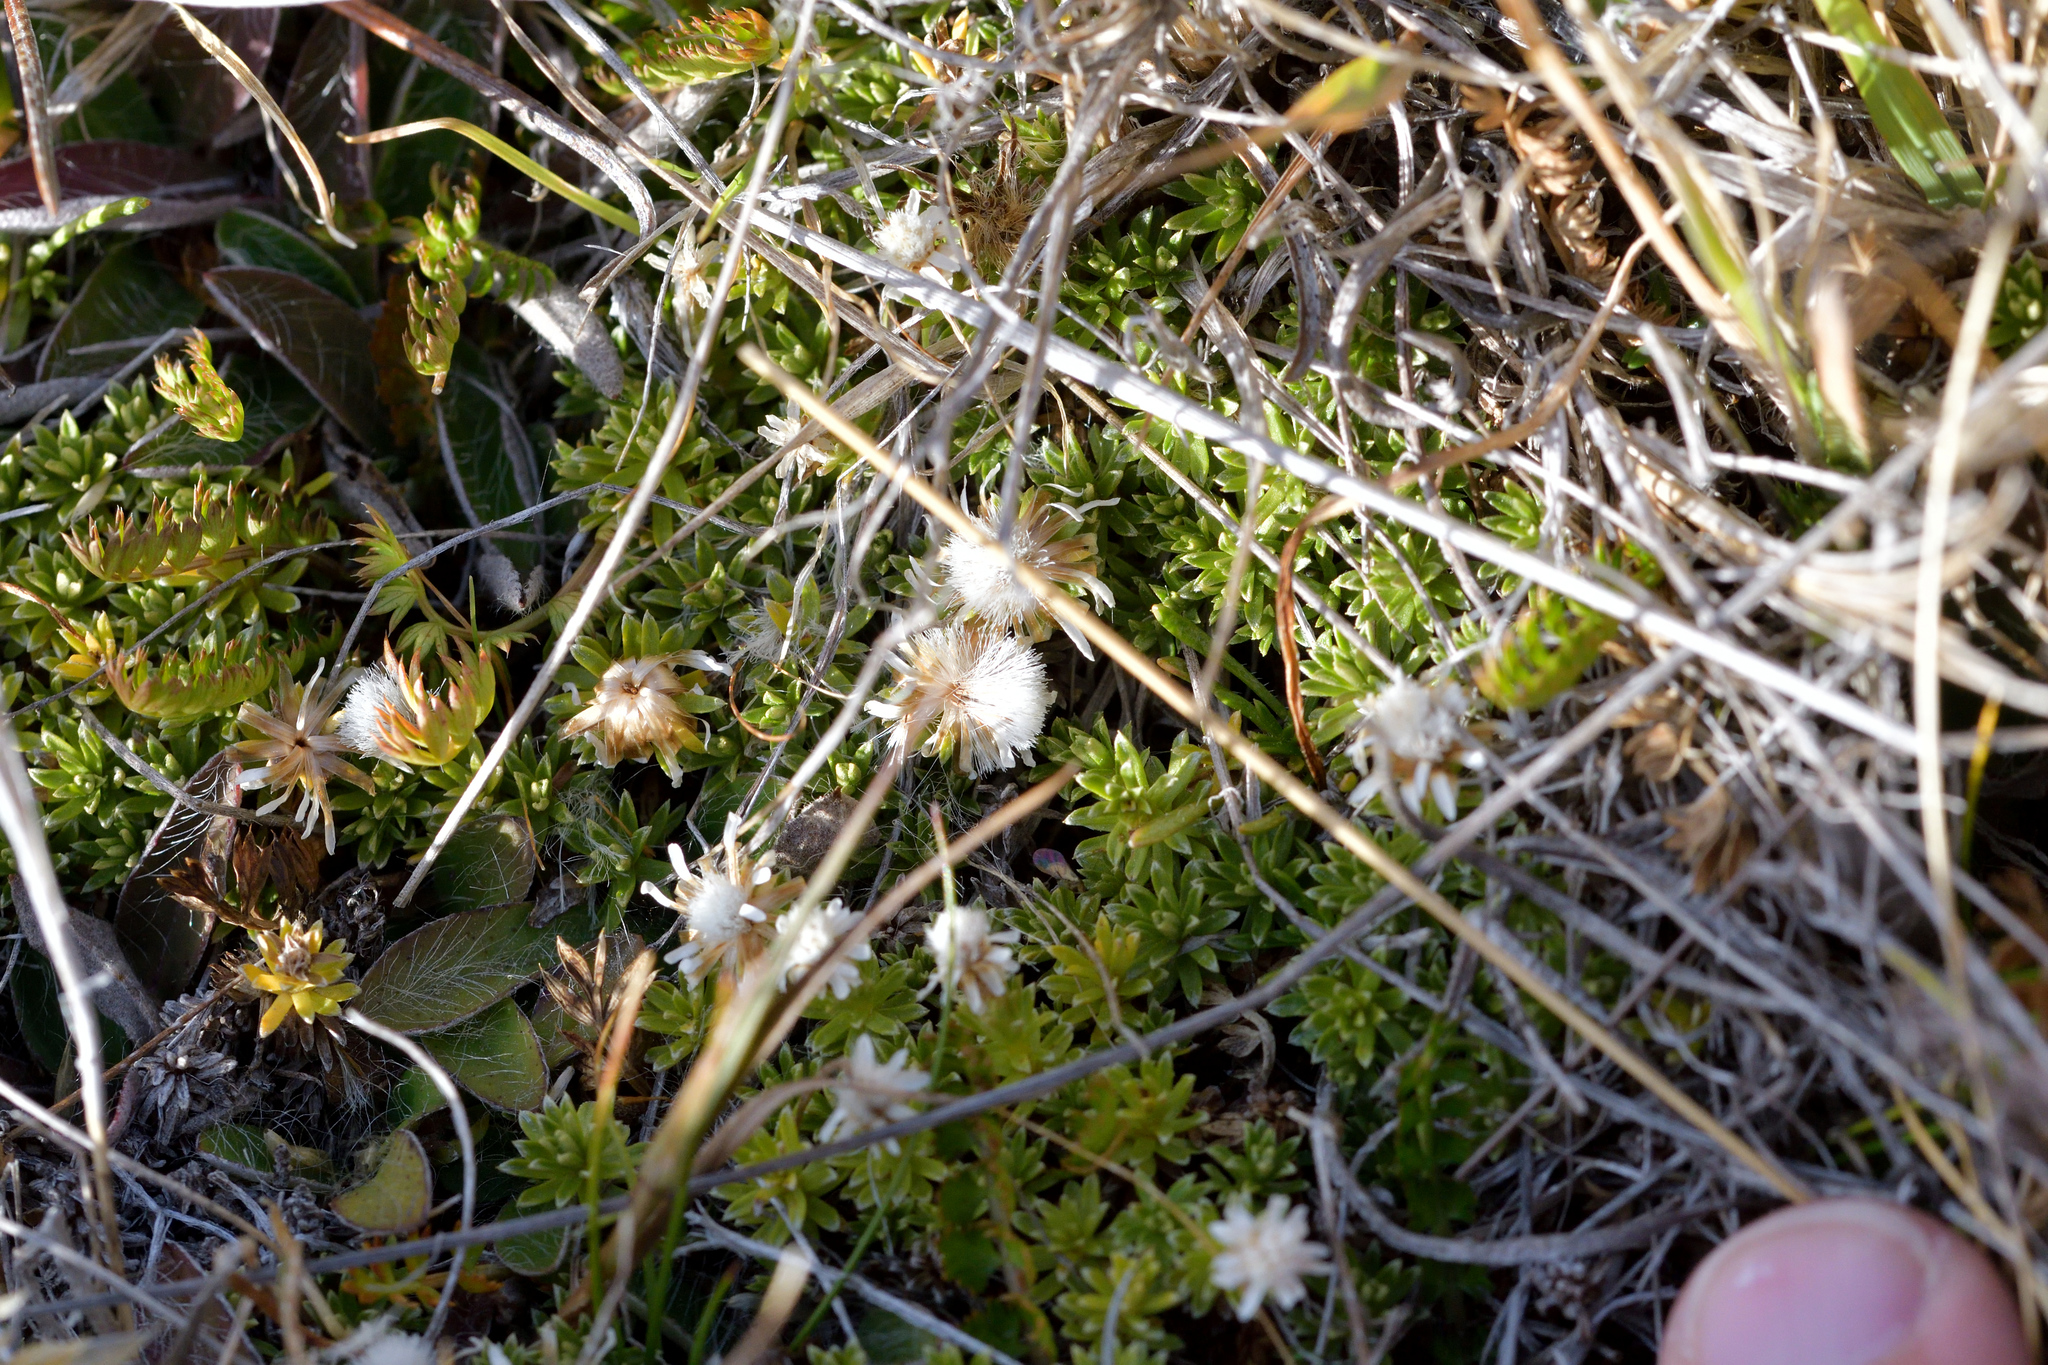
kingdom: Plantae
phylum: Tracheophyta
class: Magnoliopsida
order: Asterales
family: Asteraceae
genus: Raoulia
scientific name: Raoulia glabra
